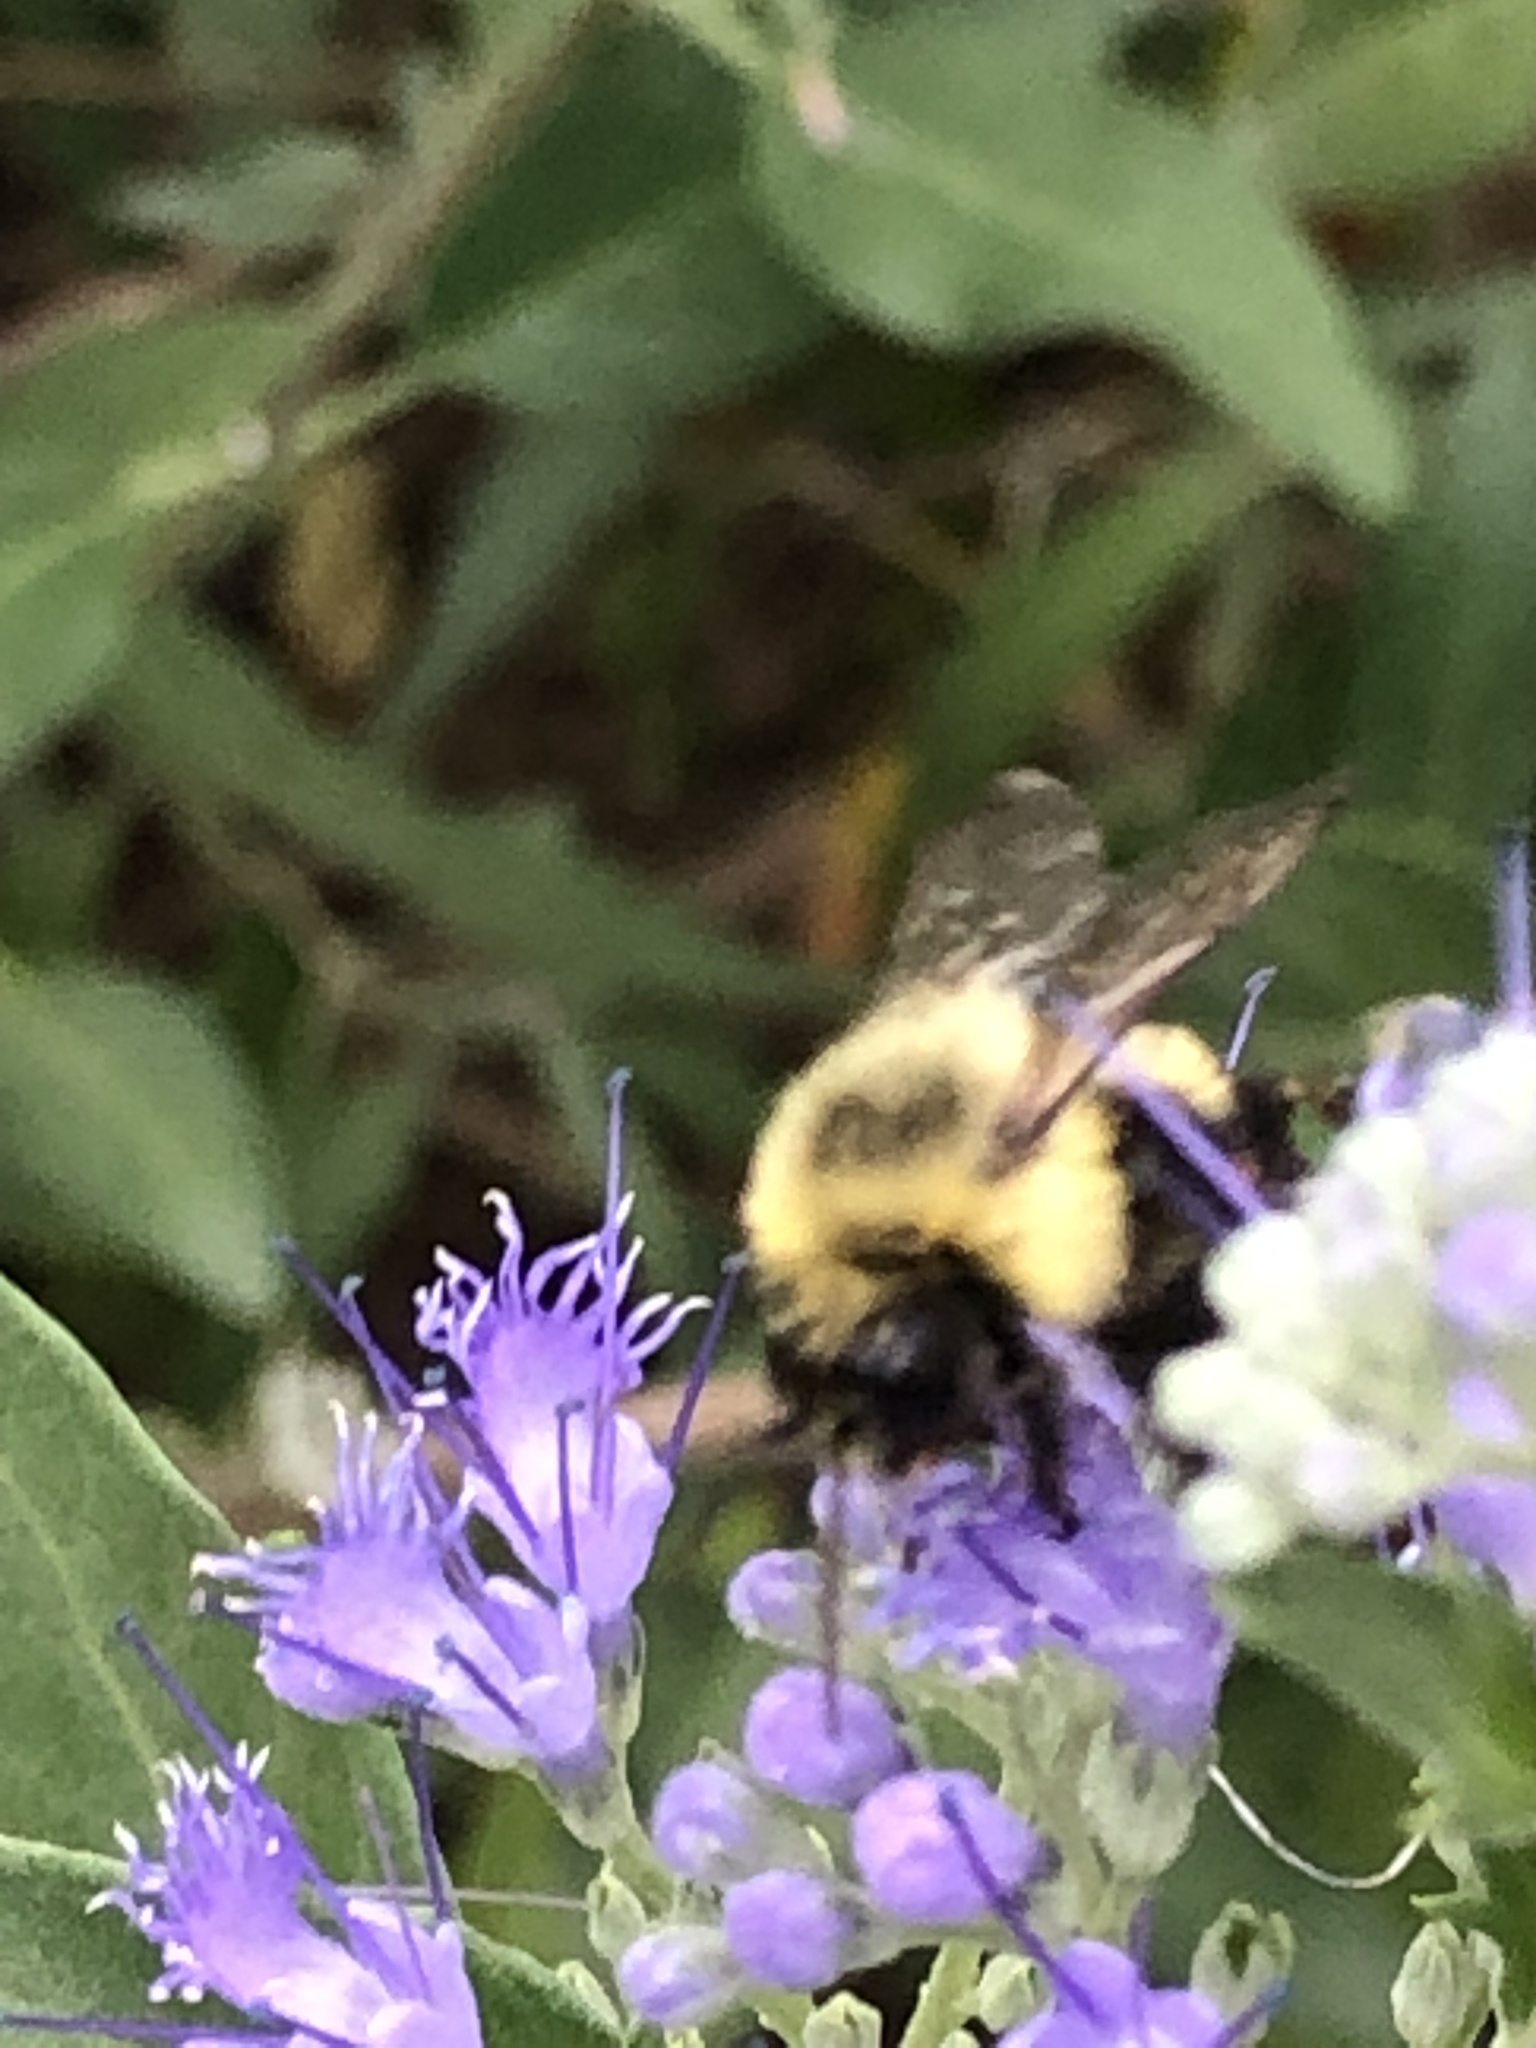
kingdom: Animalia
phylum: Arthropoda
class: Insecta
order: Hymenoptera
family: Apidae
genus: Bombus
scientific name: Bombus impatiens
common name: Common eastern bumble bee
